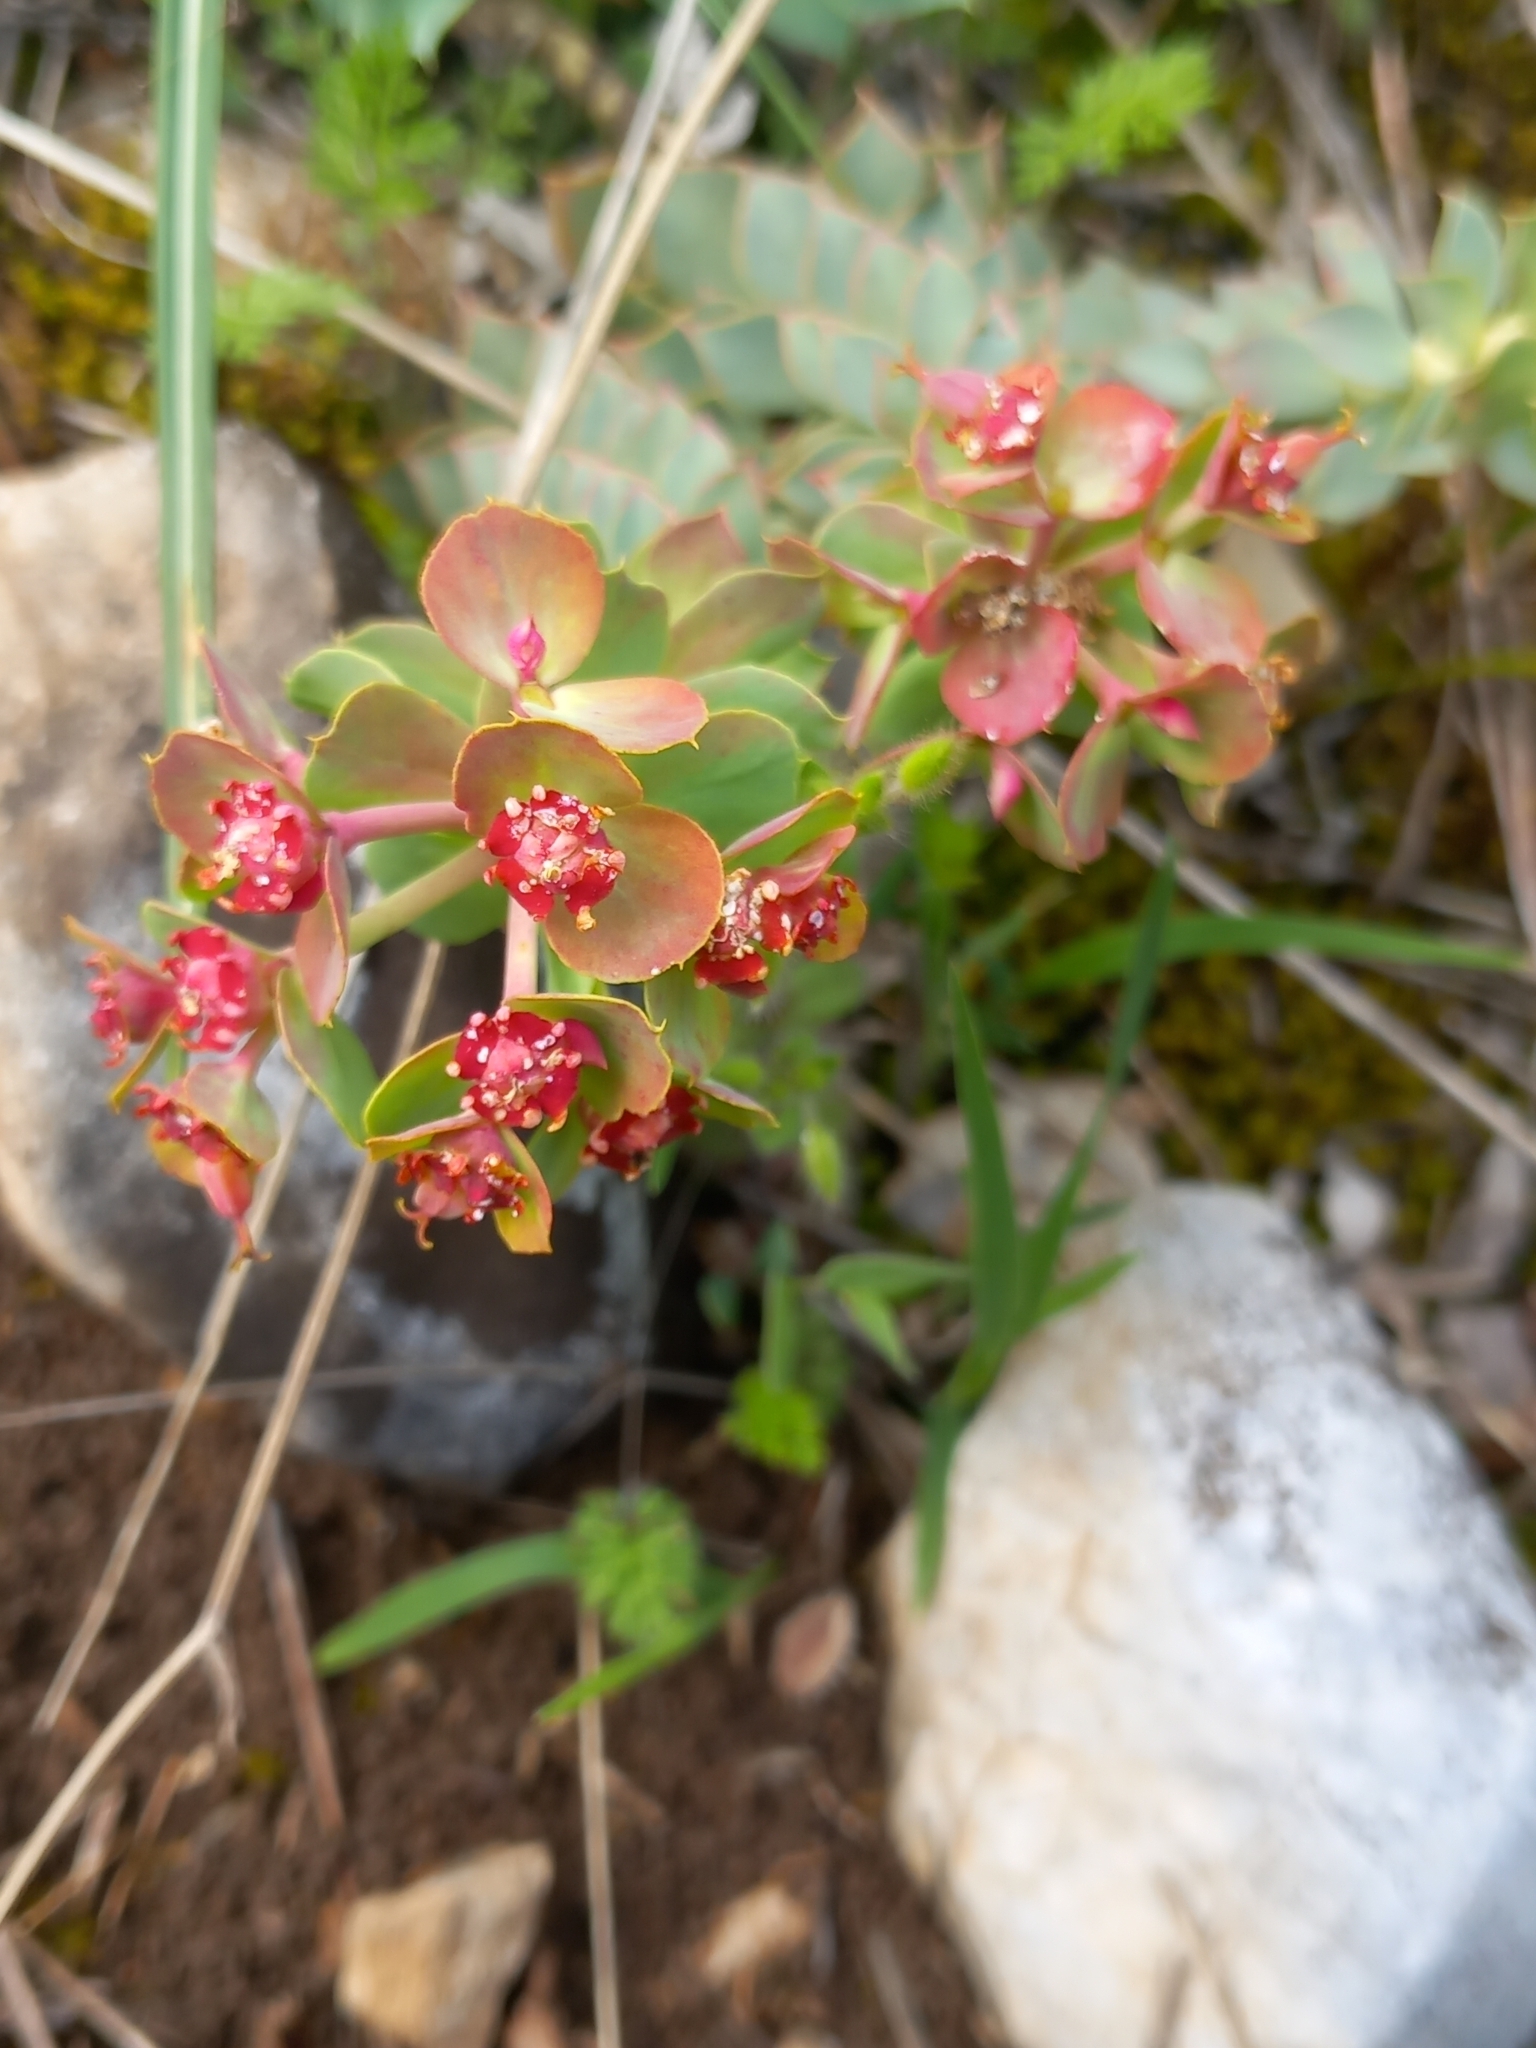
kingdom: Plantae
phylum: Tracheophyta
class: Magnoliopsida
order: Malpighiales
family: Euphorbiaceae
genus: Euphorbia
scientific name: Euphorbia myrsinites
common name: Myrtle spurge
